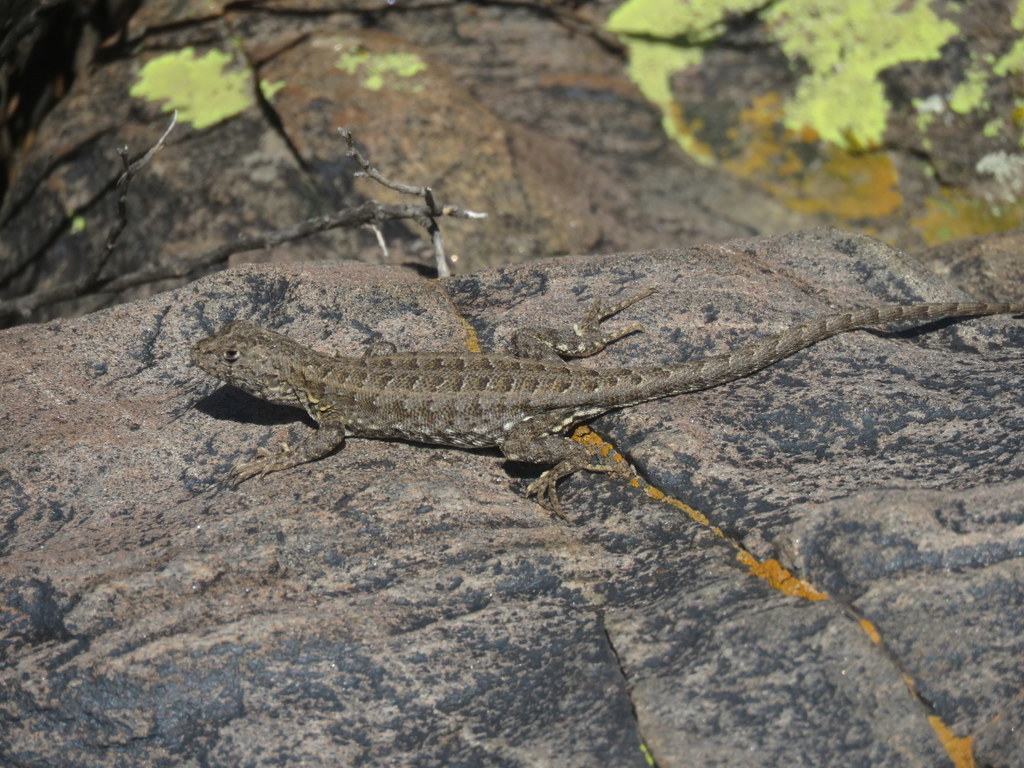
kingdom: Animalia
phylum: Chordata
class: Squamata
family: Liolaemidae
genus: Liolaemus
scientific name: Liolaemus quilmes
